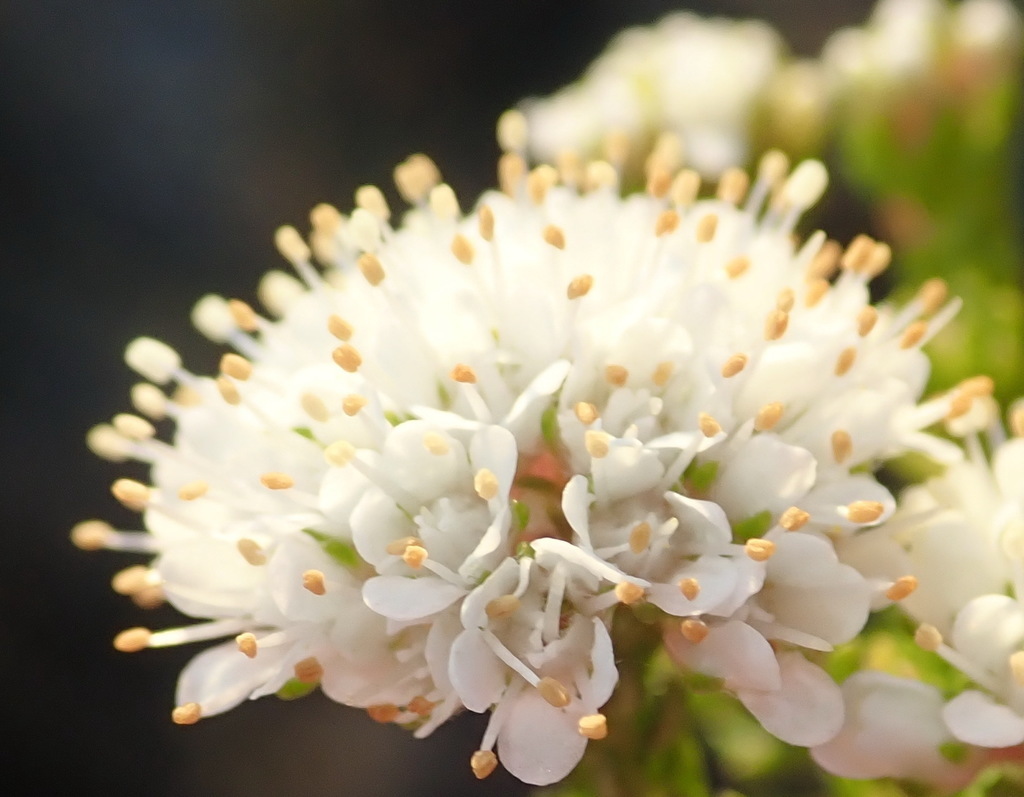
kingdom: Plantae
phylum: Tracheophyta
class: Magnoliopsida
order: Sapindales
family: Rutaceae
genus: Agathosma
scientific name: Agathosma serpyllacea
